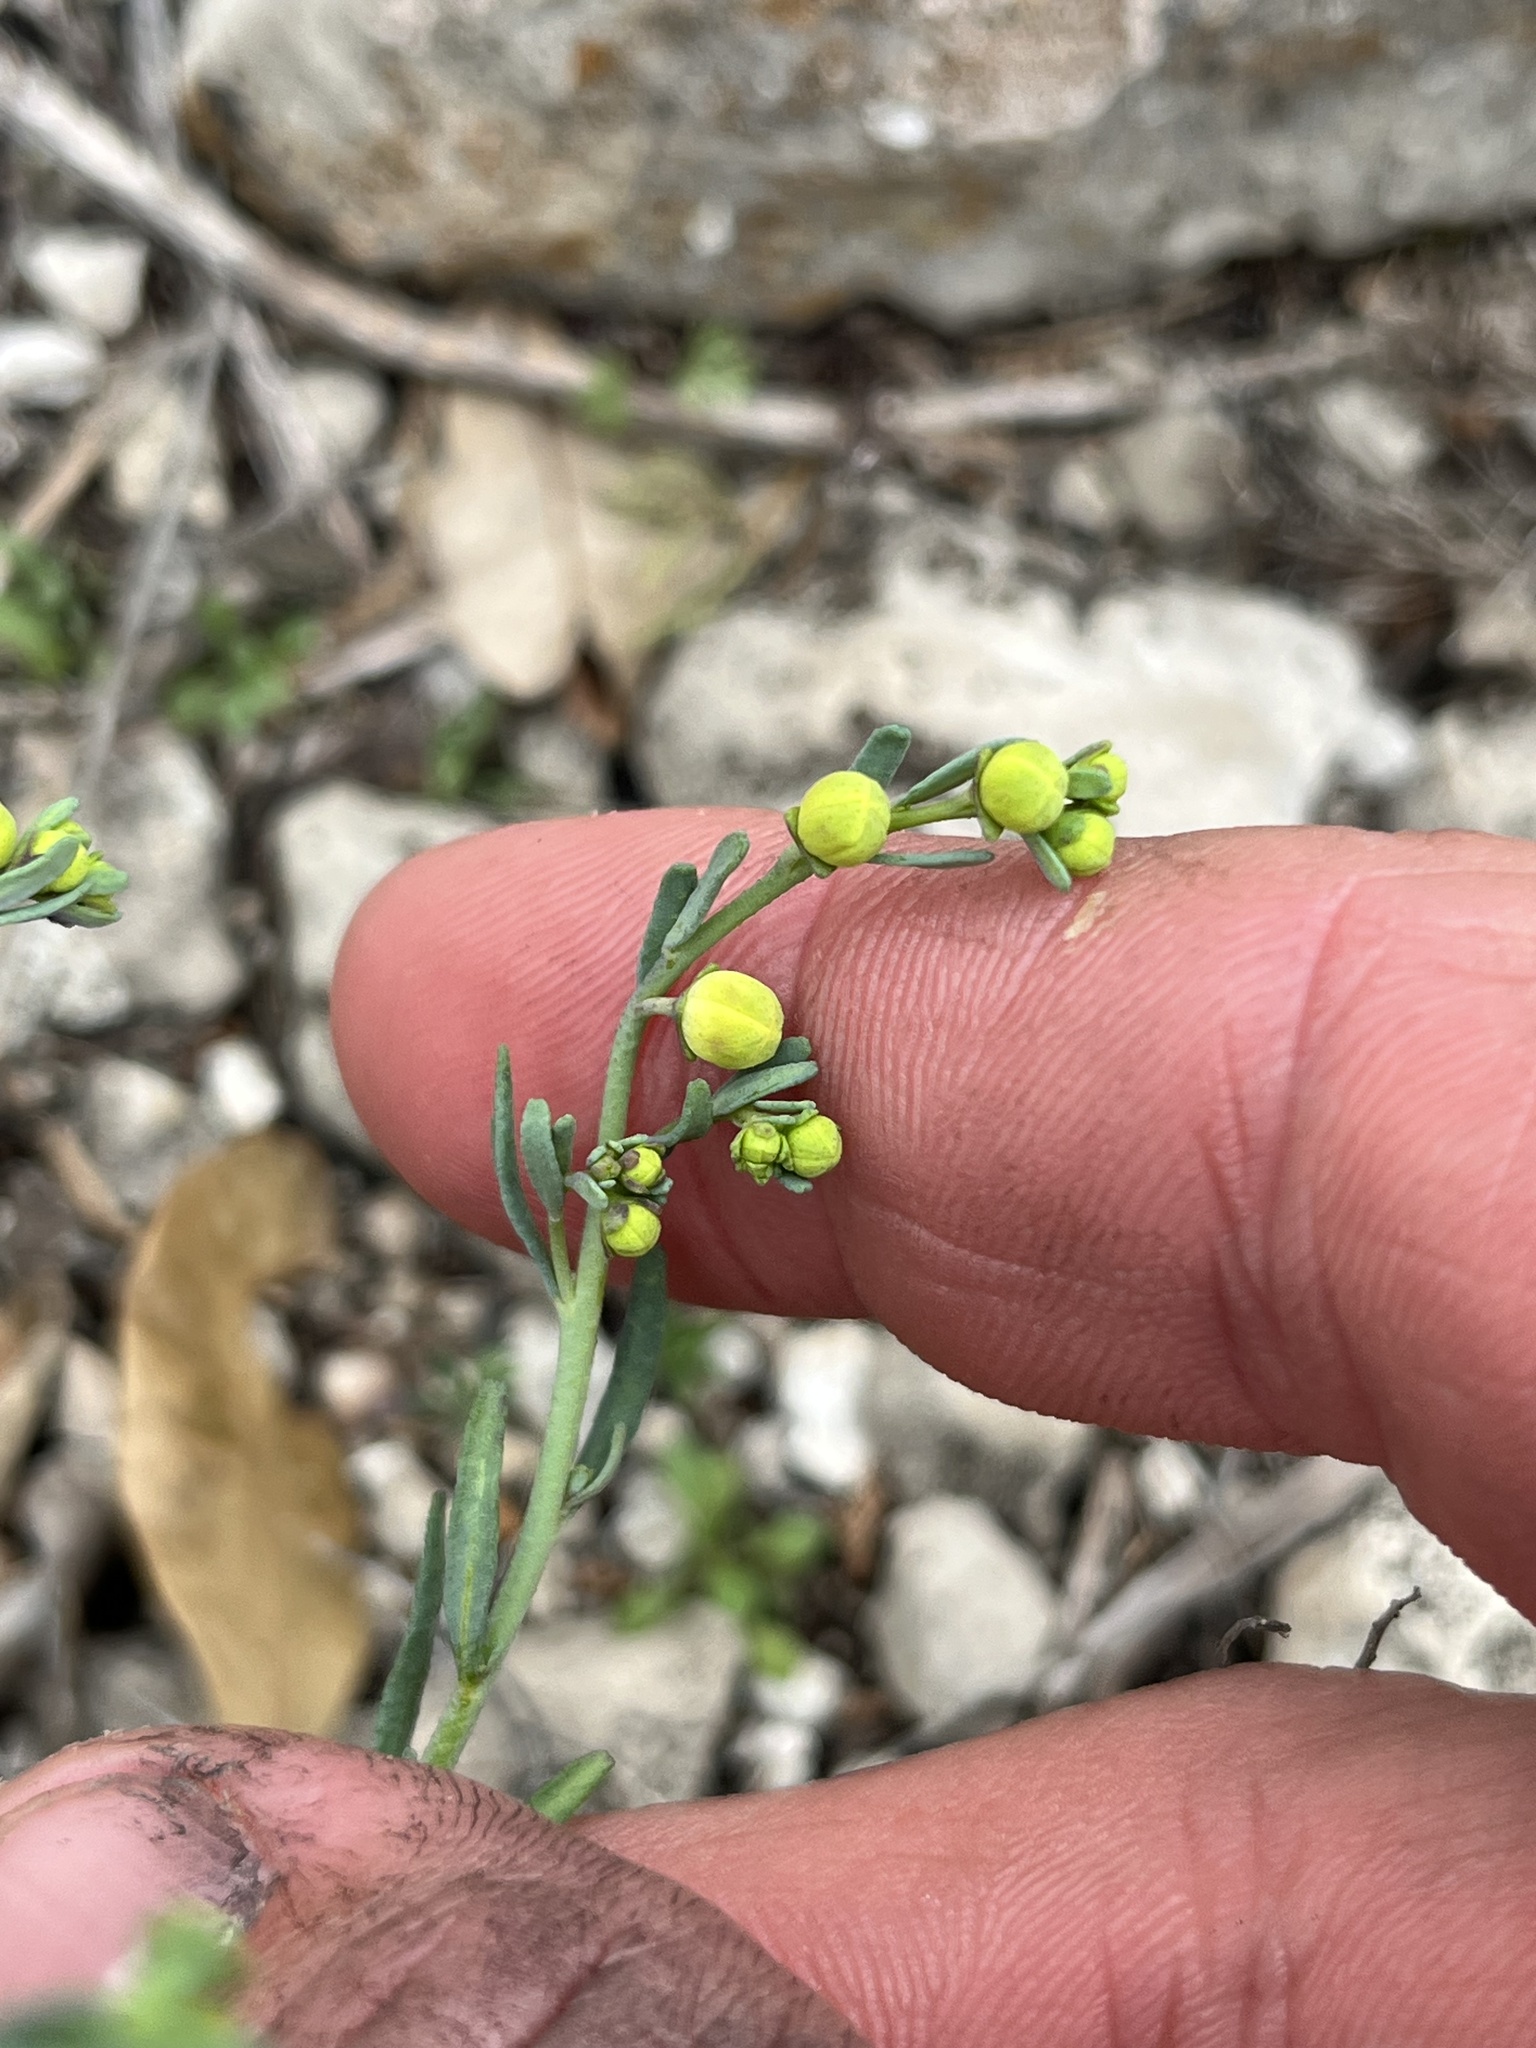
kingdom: Plantae
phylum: Tracheophyta
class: Magnoliopsida
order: Sapindales
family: Rutaceae
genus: Thamnosma
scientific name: Thamnosma texana
